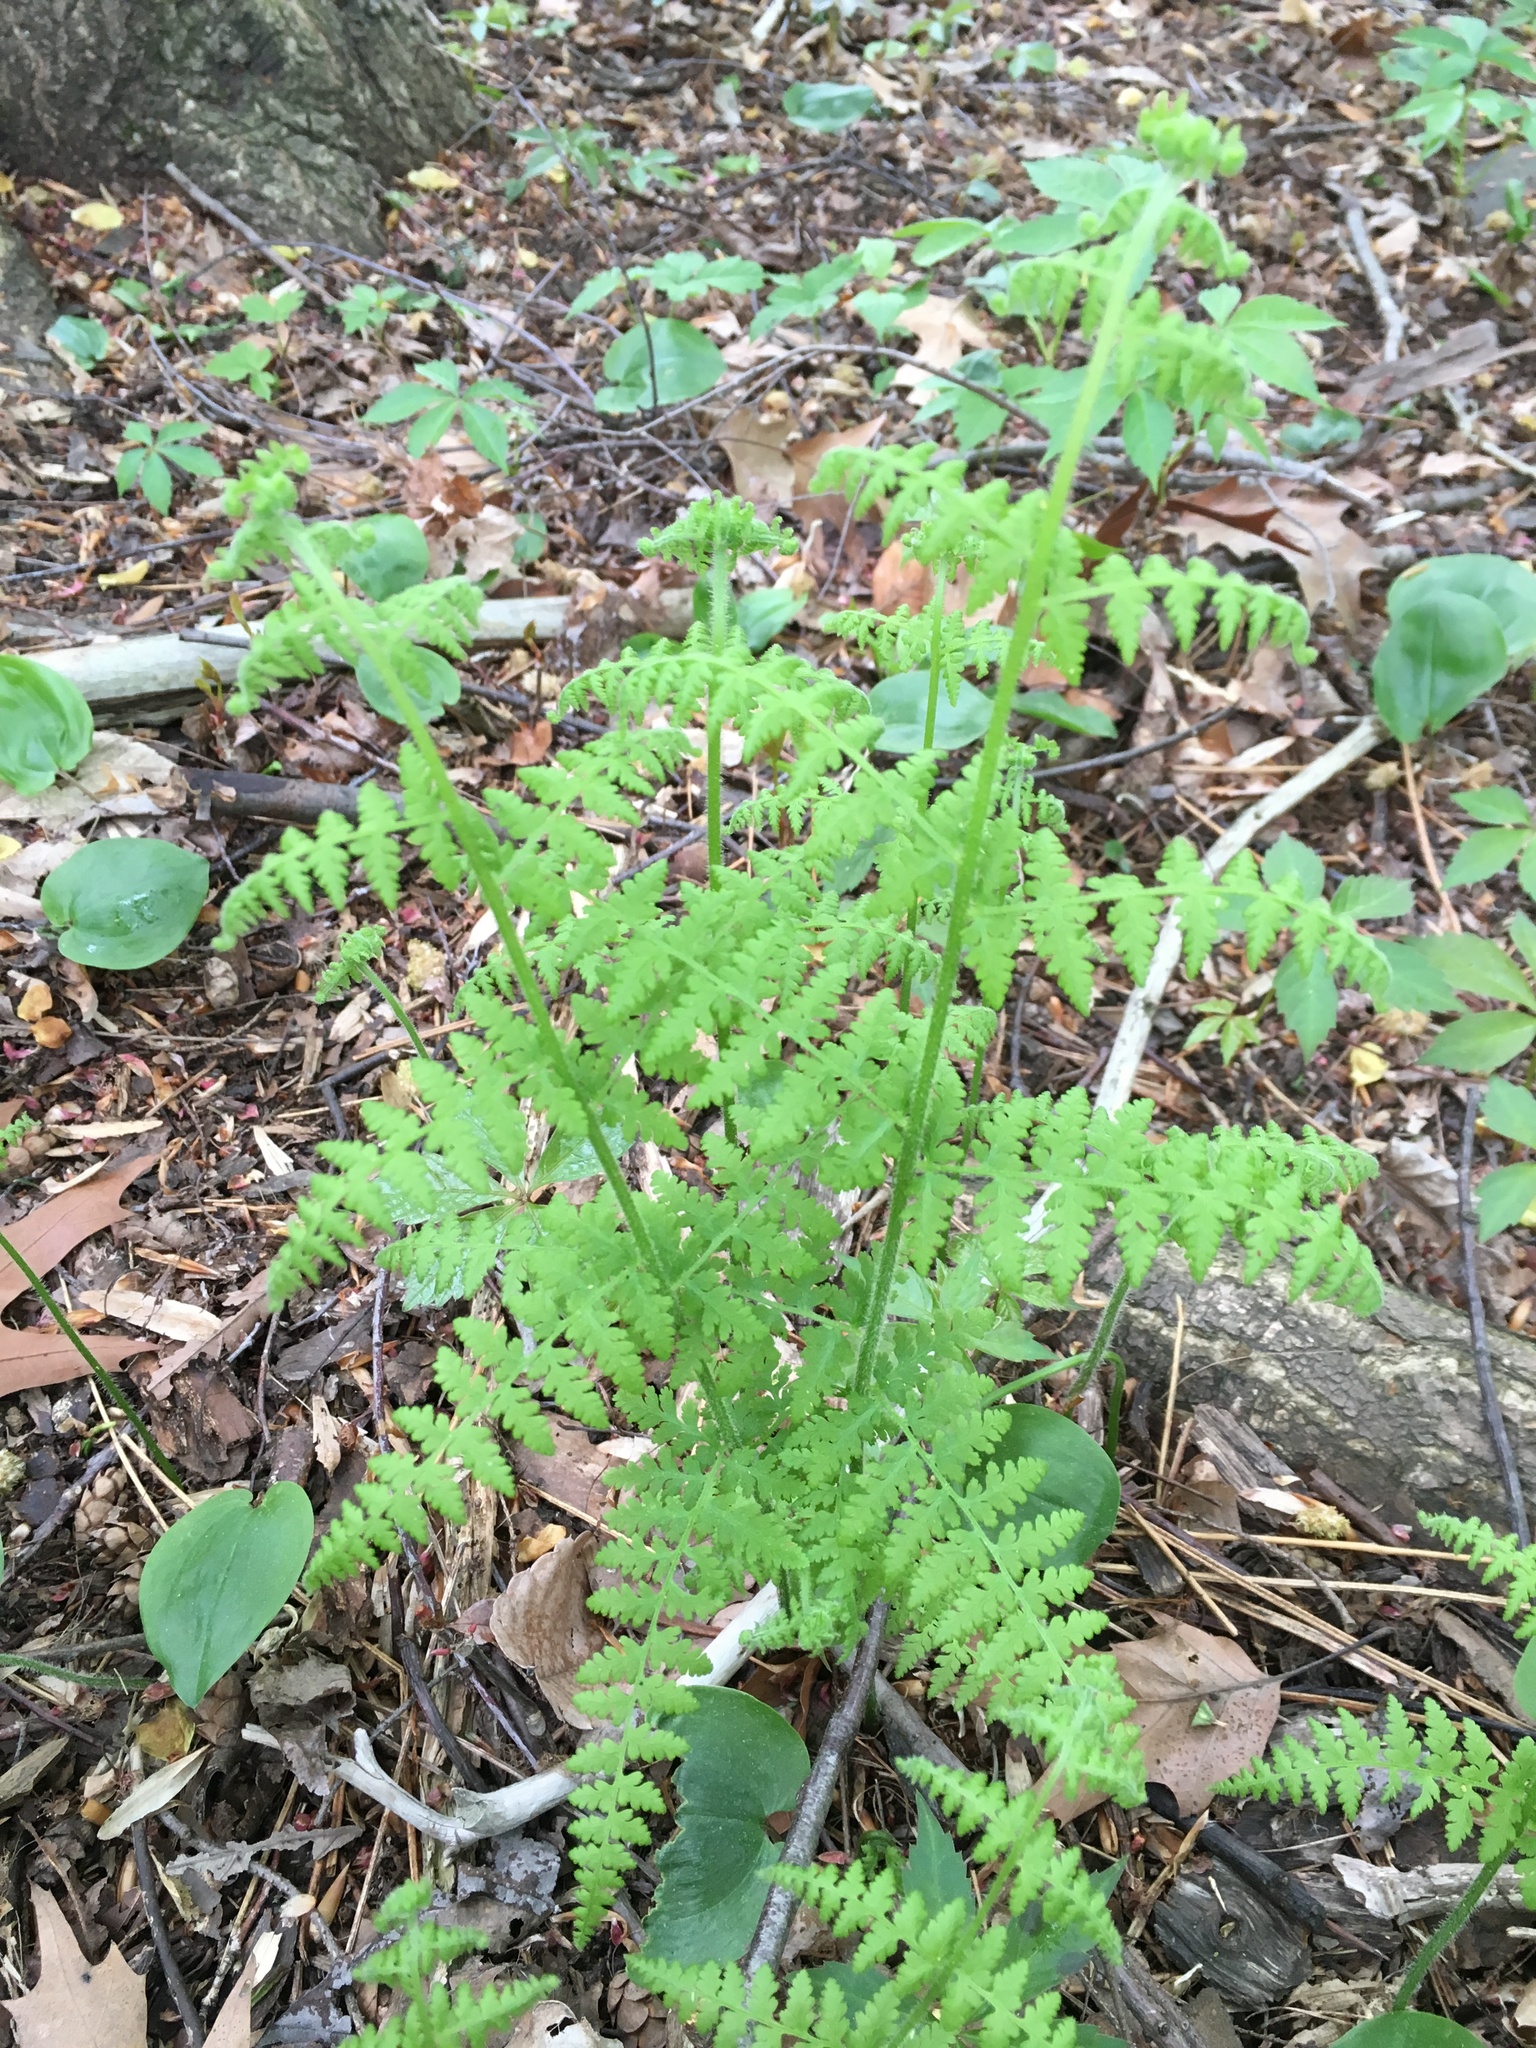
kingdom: Plantae
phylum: Tracheophyta
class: Polypodiopsida
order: Polypodiales
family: Dennstaedtiaceae
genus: Sitobolium
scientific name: Sitobolium punctilobum
